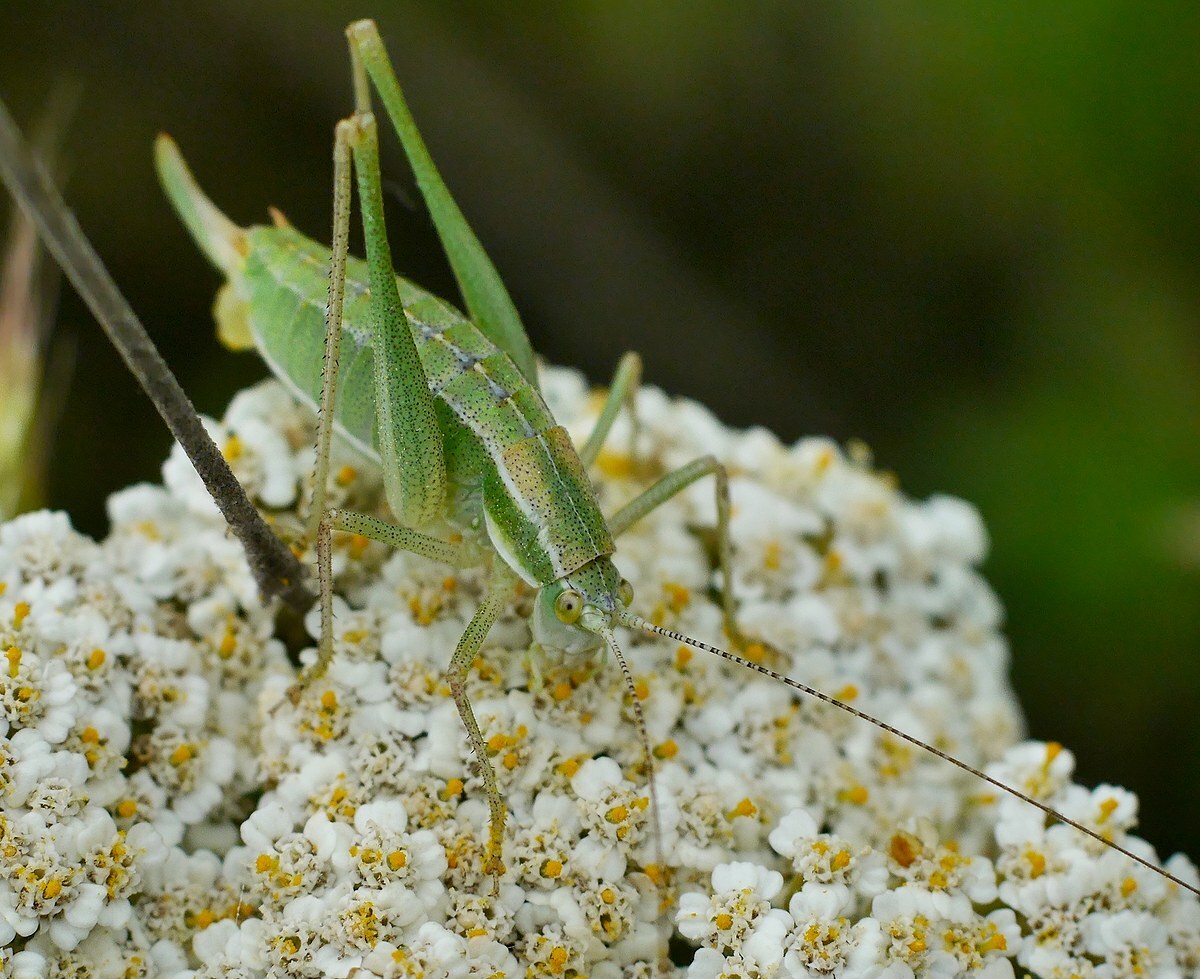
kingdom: Animalia
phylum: Arthropoda
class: Insecta
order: Orthoptera
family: Tettigoniidae
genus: Poecilimon
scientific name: Poecilimon intermedius
